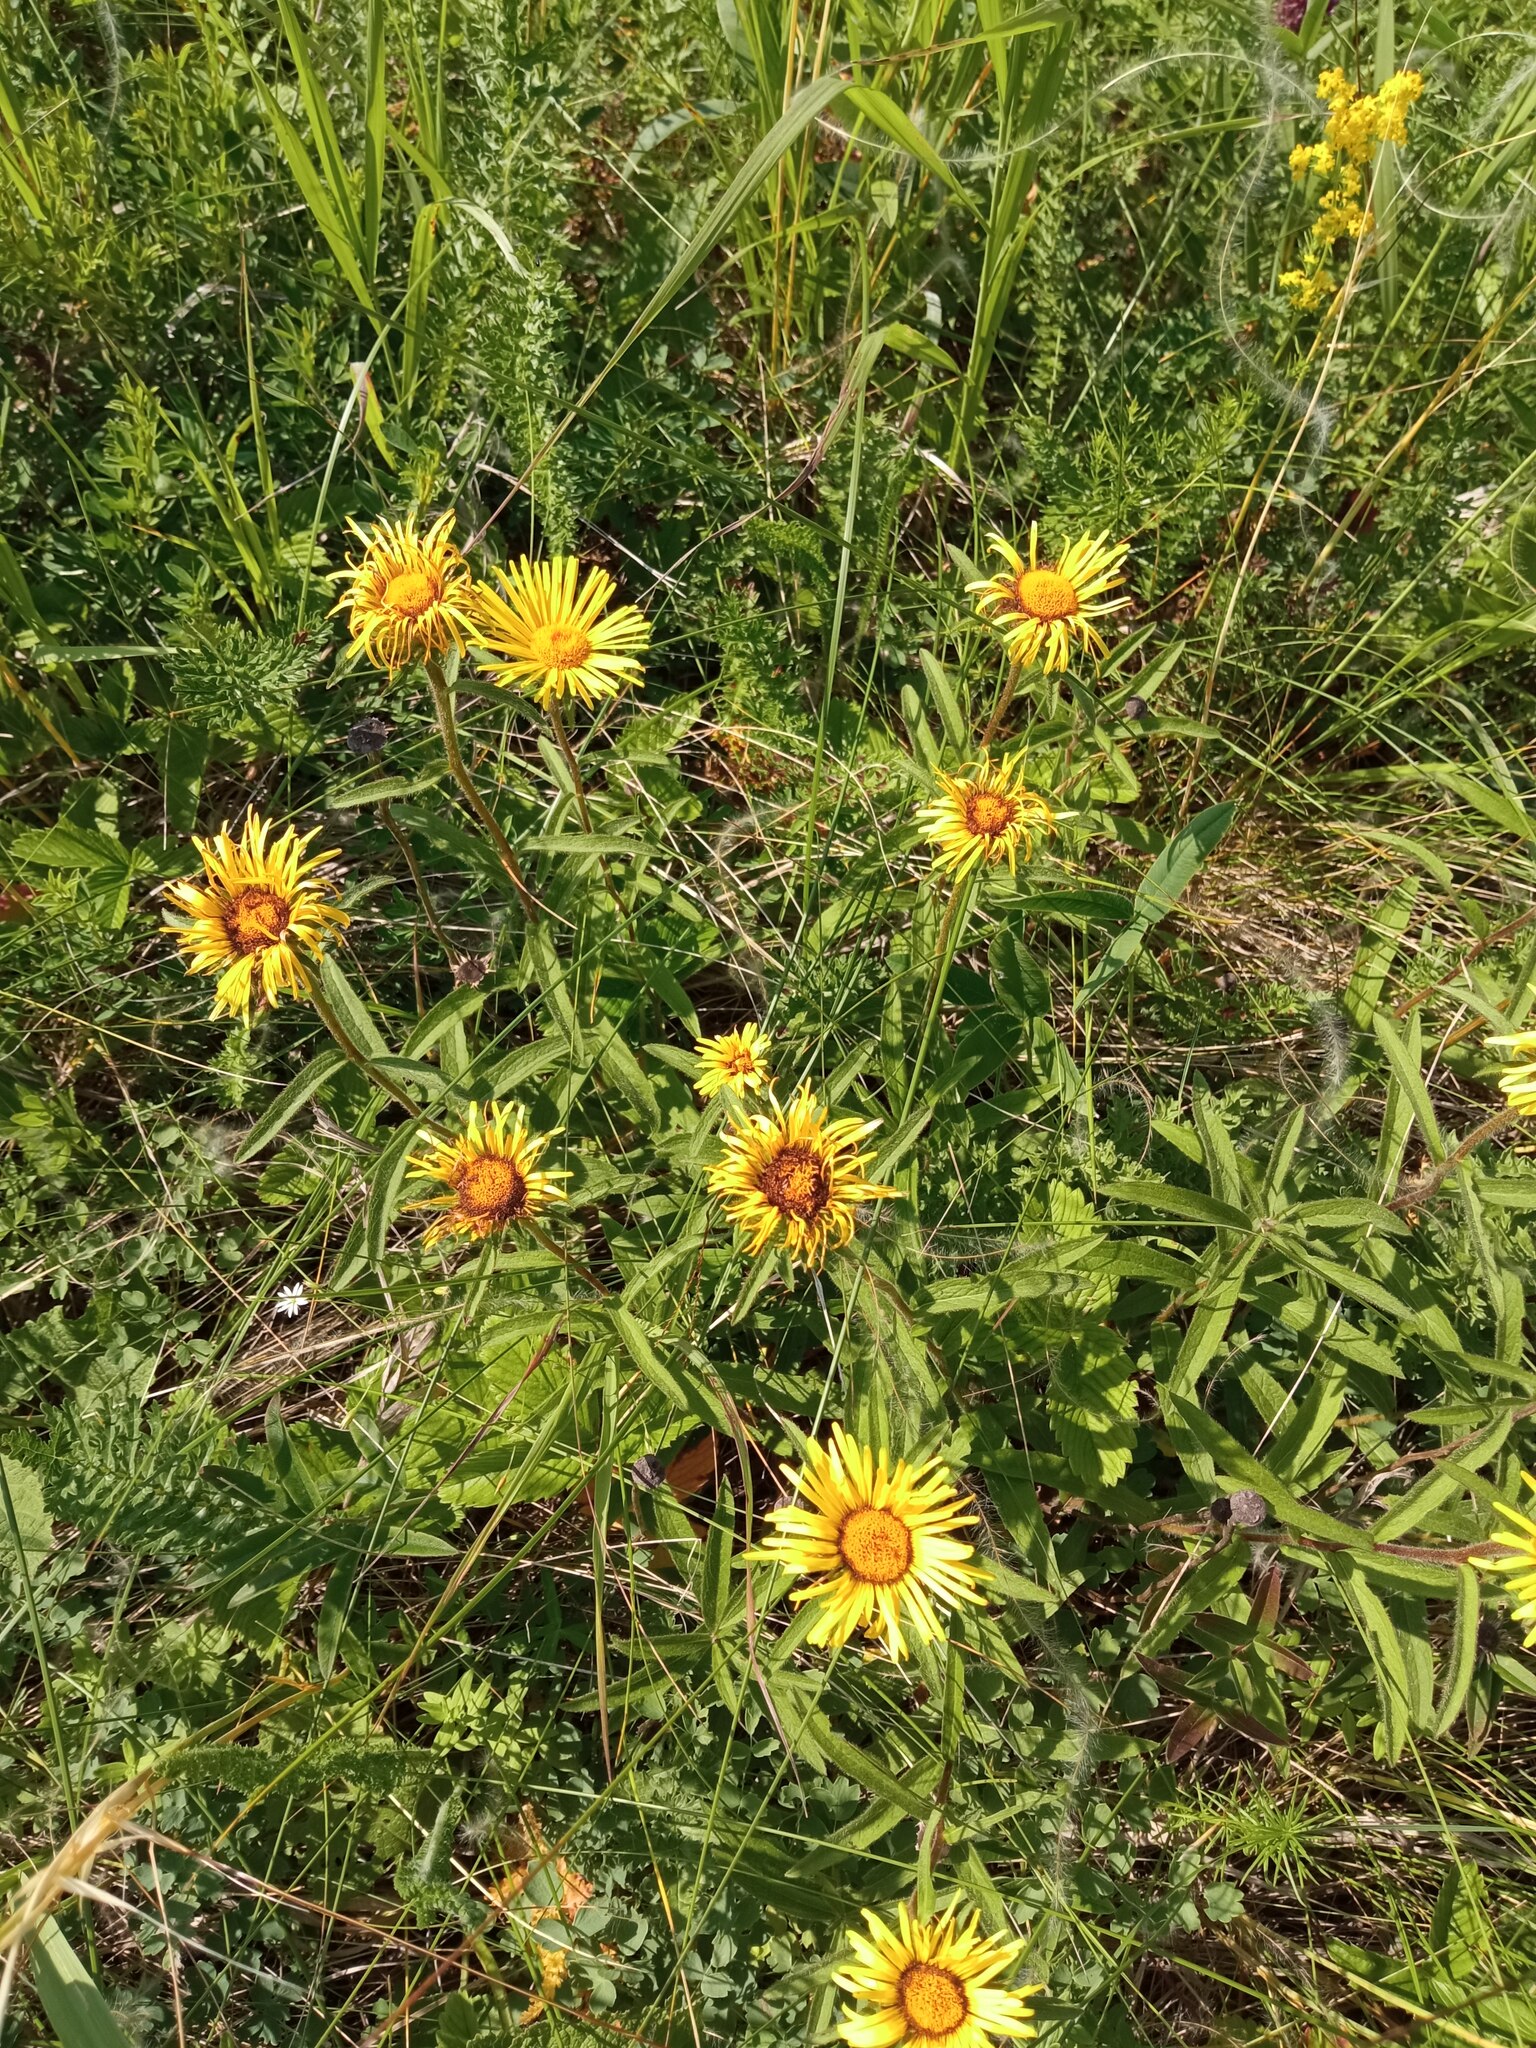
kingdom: Plantae
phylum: Tracheophyta
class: Magnoliopsida
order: Asterales
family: Asteraceae
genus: Pentanema
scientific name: Pentanema hirtum
